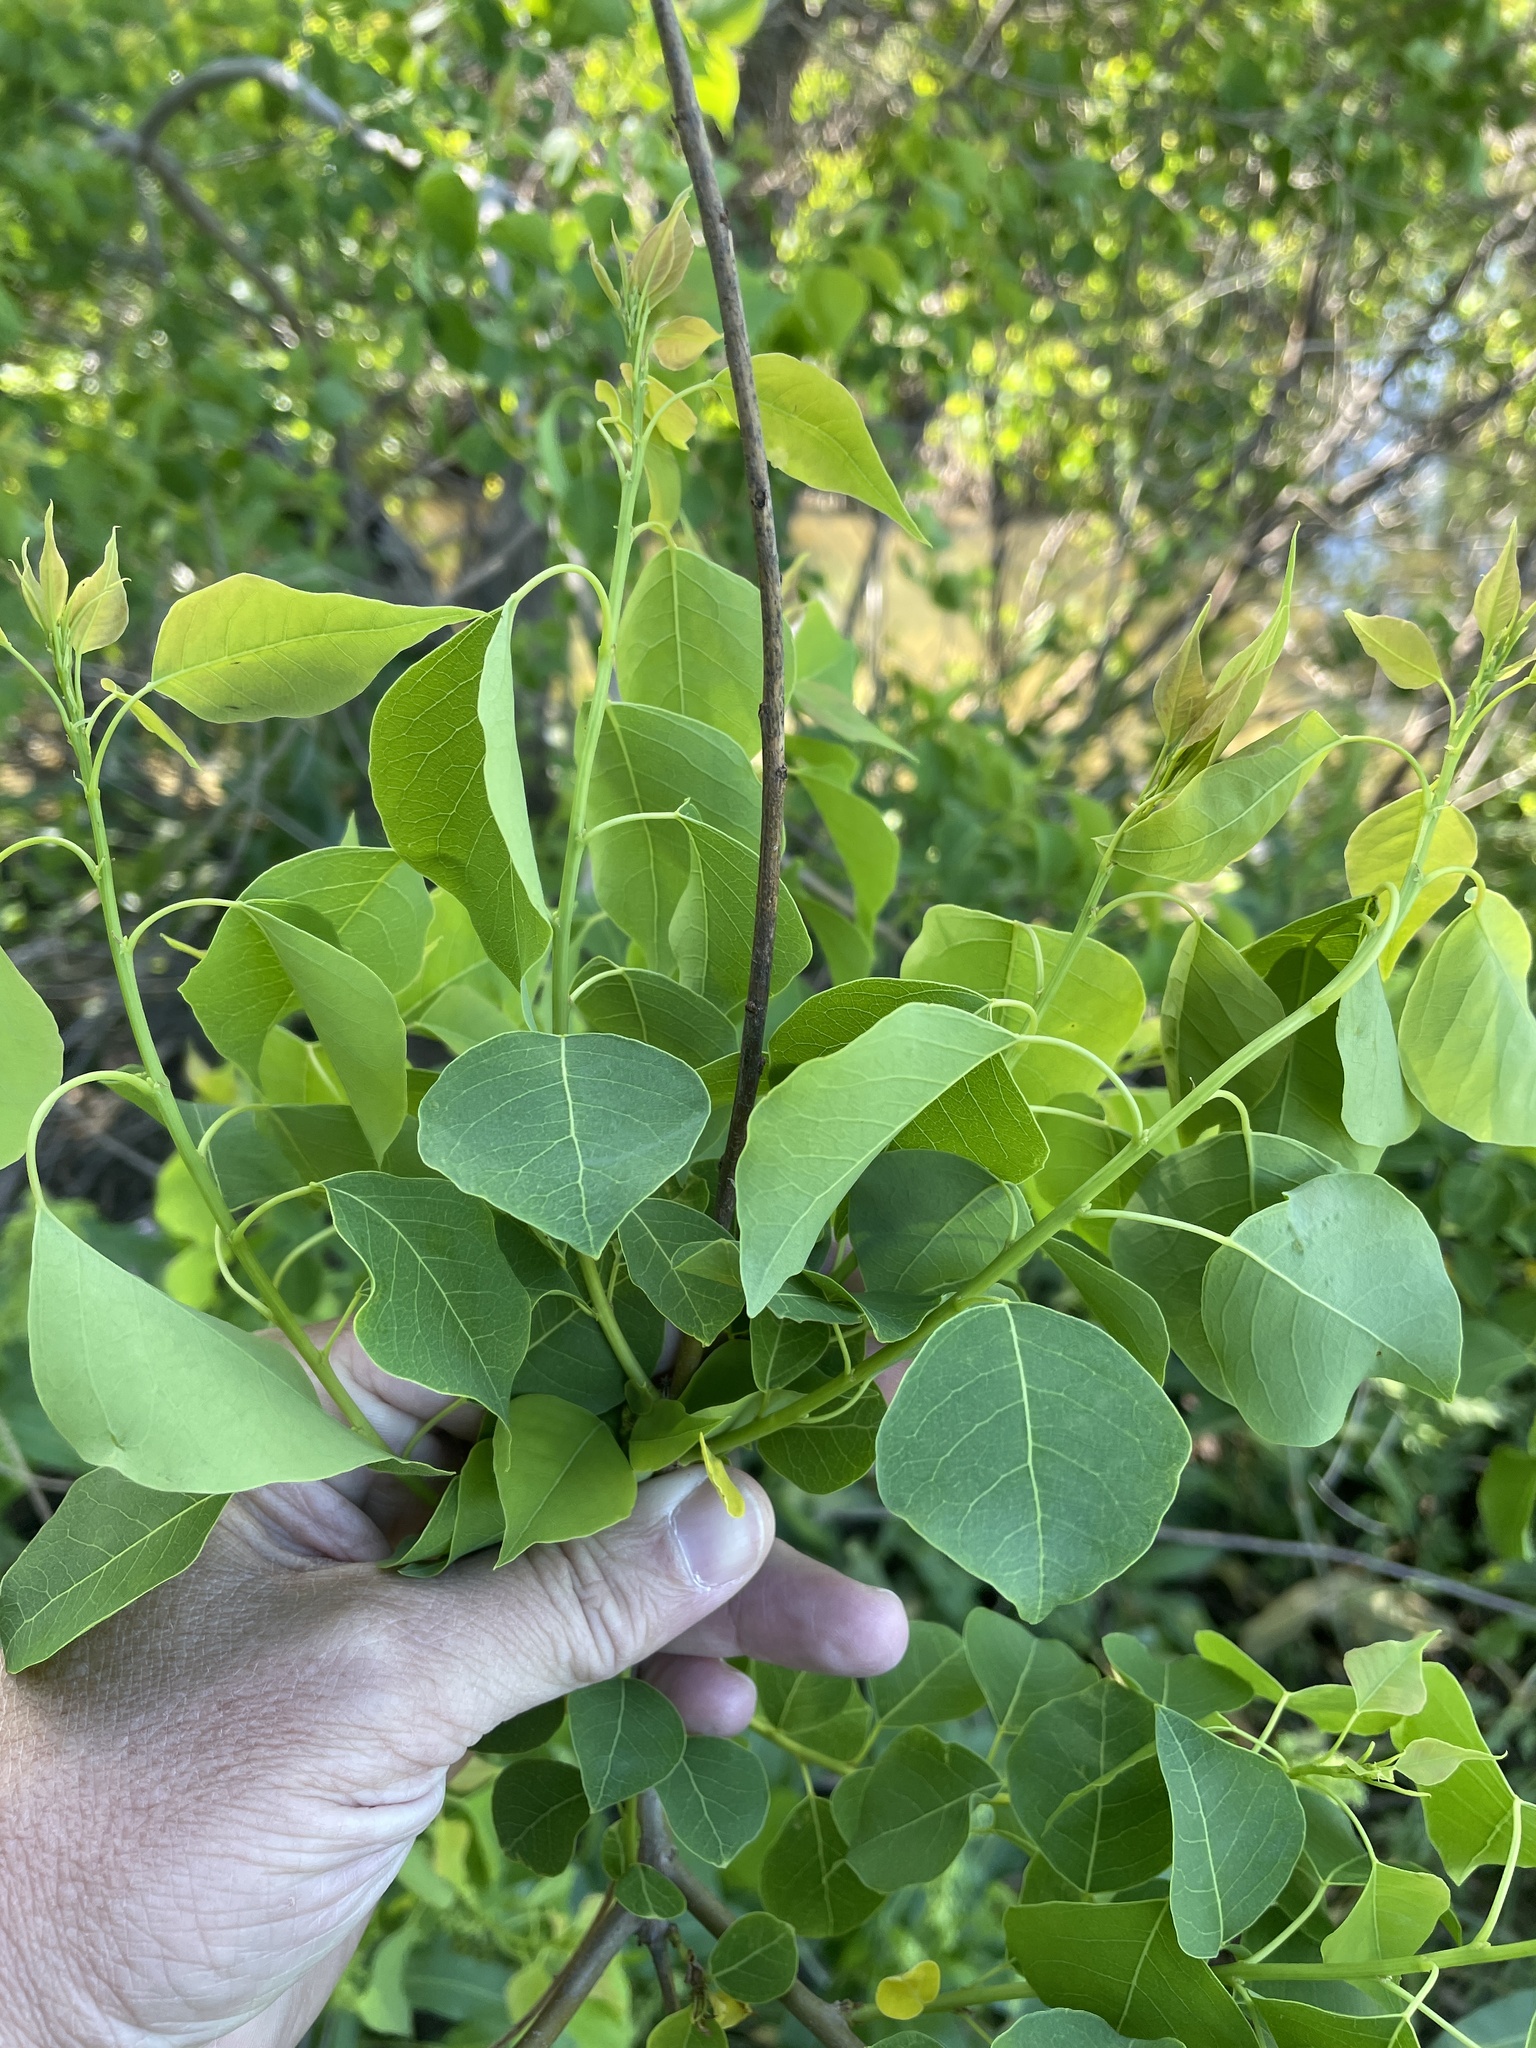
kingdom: Plantae
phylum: Tracheophyta
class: Magnoliopsida
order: Malpighiales
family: Euphorbiaceae
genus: Triadica
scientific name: Triadica sebifera
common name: Chinese tallow
